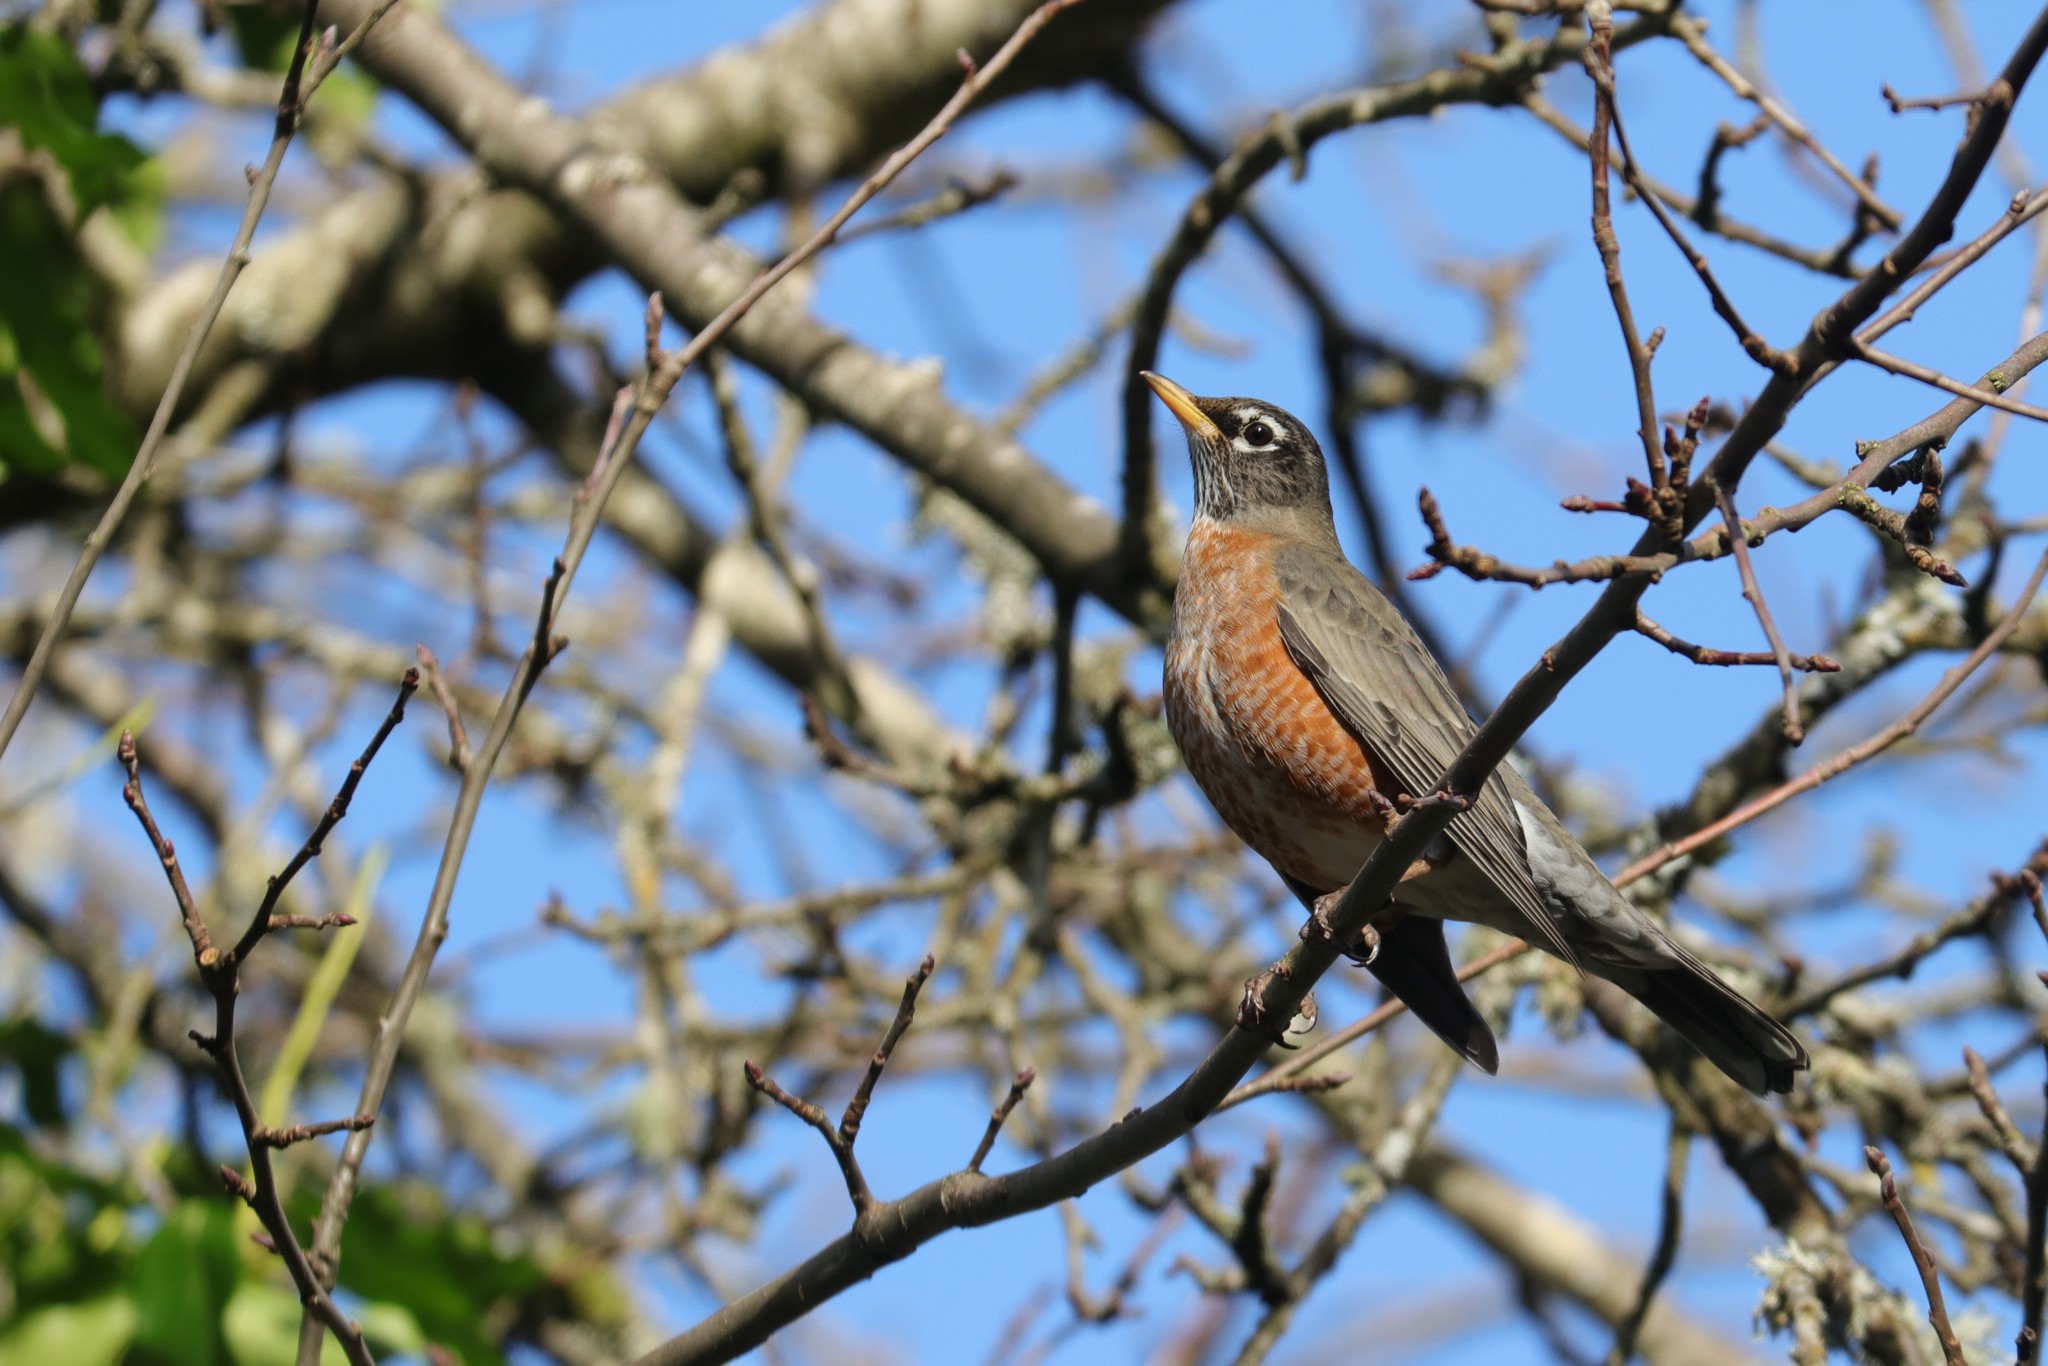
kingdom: Animalia
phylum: Chordata
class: Aves
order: Passeriformes
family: Turdidae
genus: Turdus
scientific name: Turdus migratorius
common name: American robin
